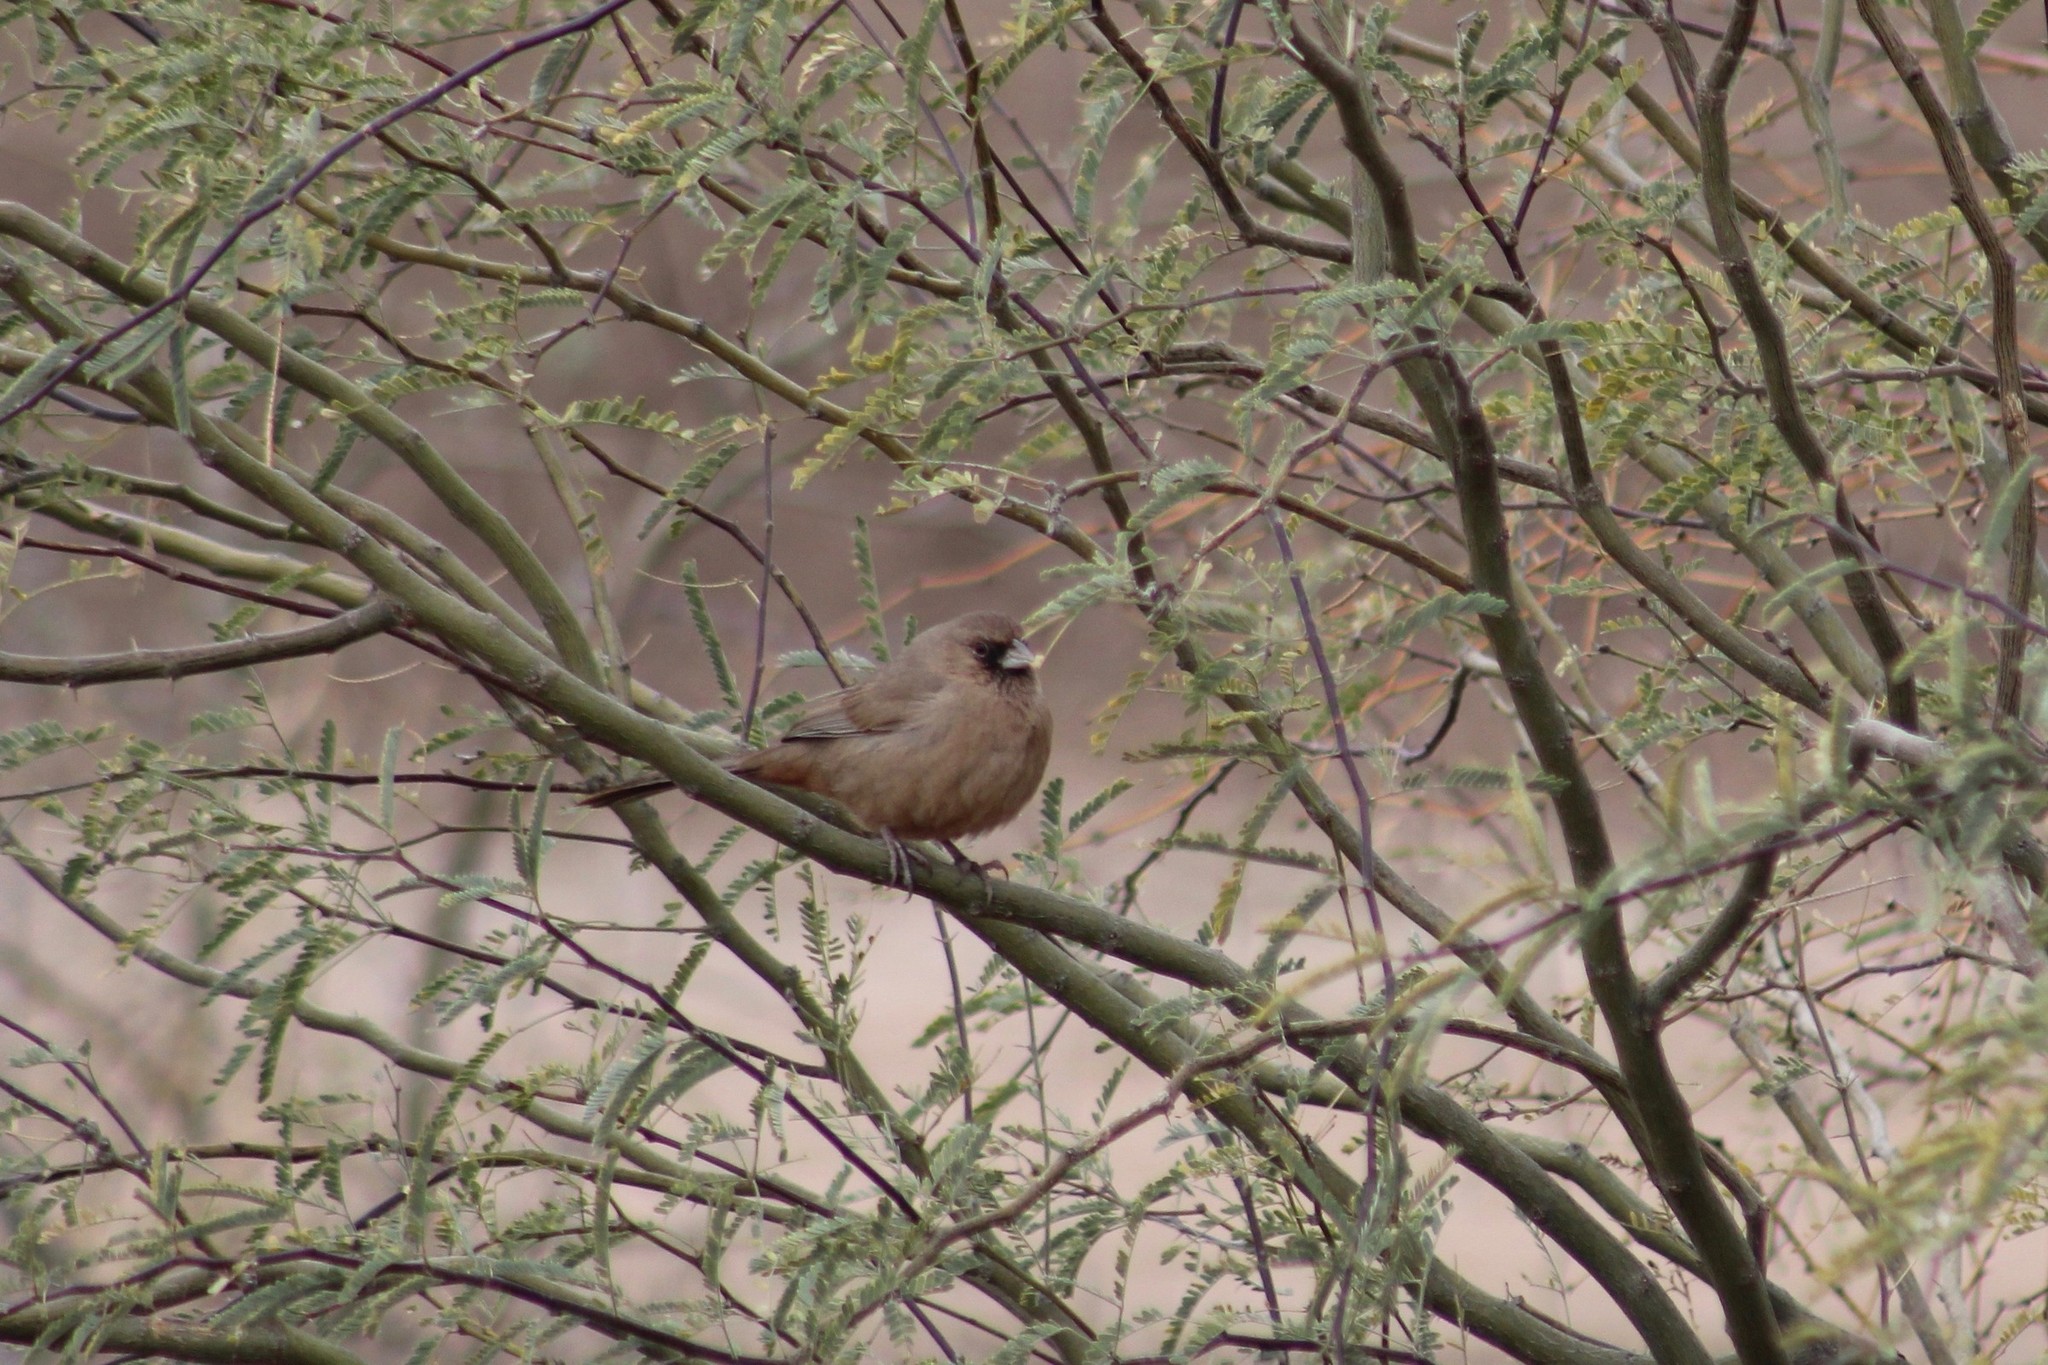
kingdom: Animalia
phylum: Chordata
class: Aves
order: Passeriformes
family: Passerellidae
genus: Melozone
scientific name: Melozone aberti
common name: Abert's towhee
